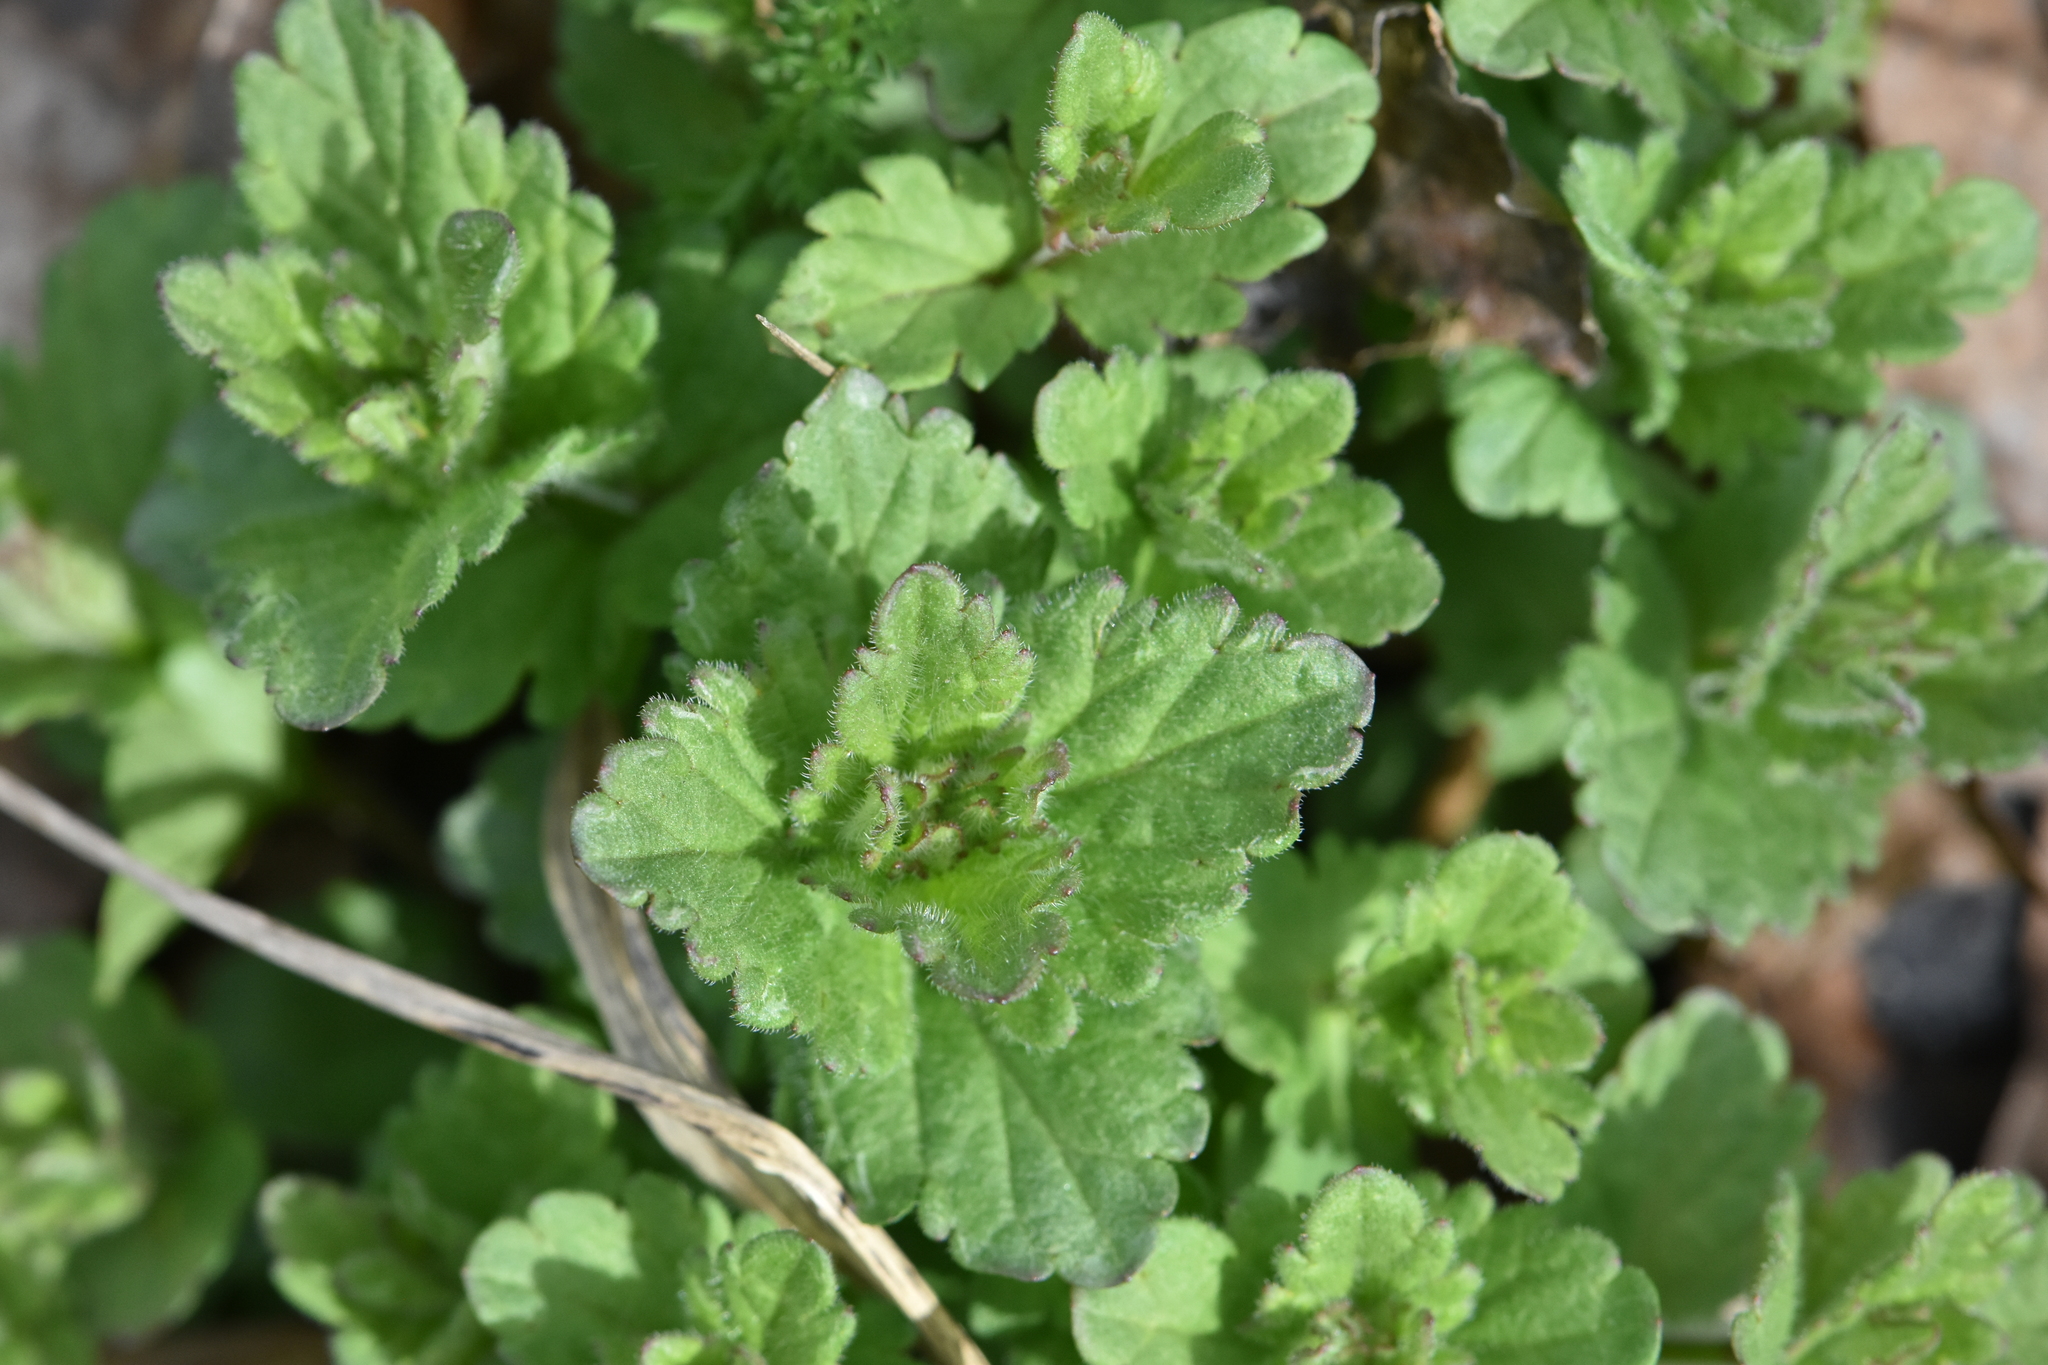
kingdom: Plantae
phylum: Tracheophyta
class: Magnoliopsida
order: Lamiales
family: Plantaginaceae
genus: Veronica
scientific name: Veronica chamaedrys
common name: Germander speedwell
